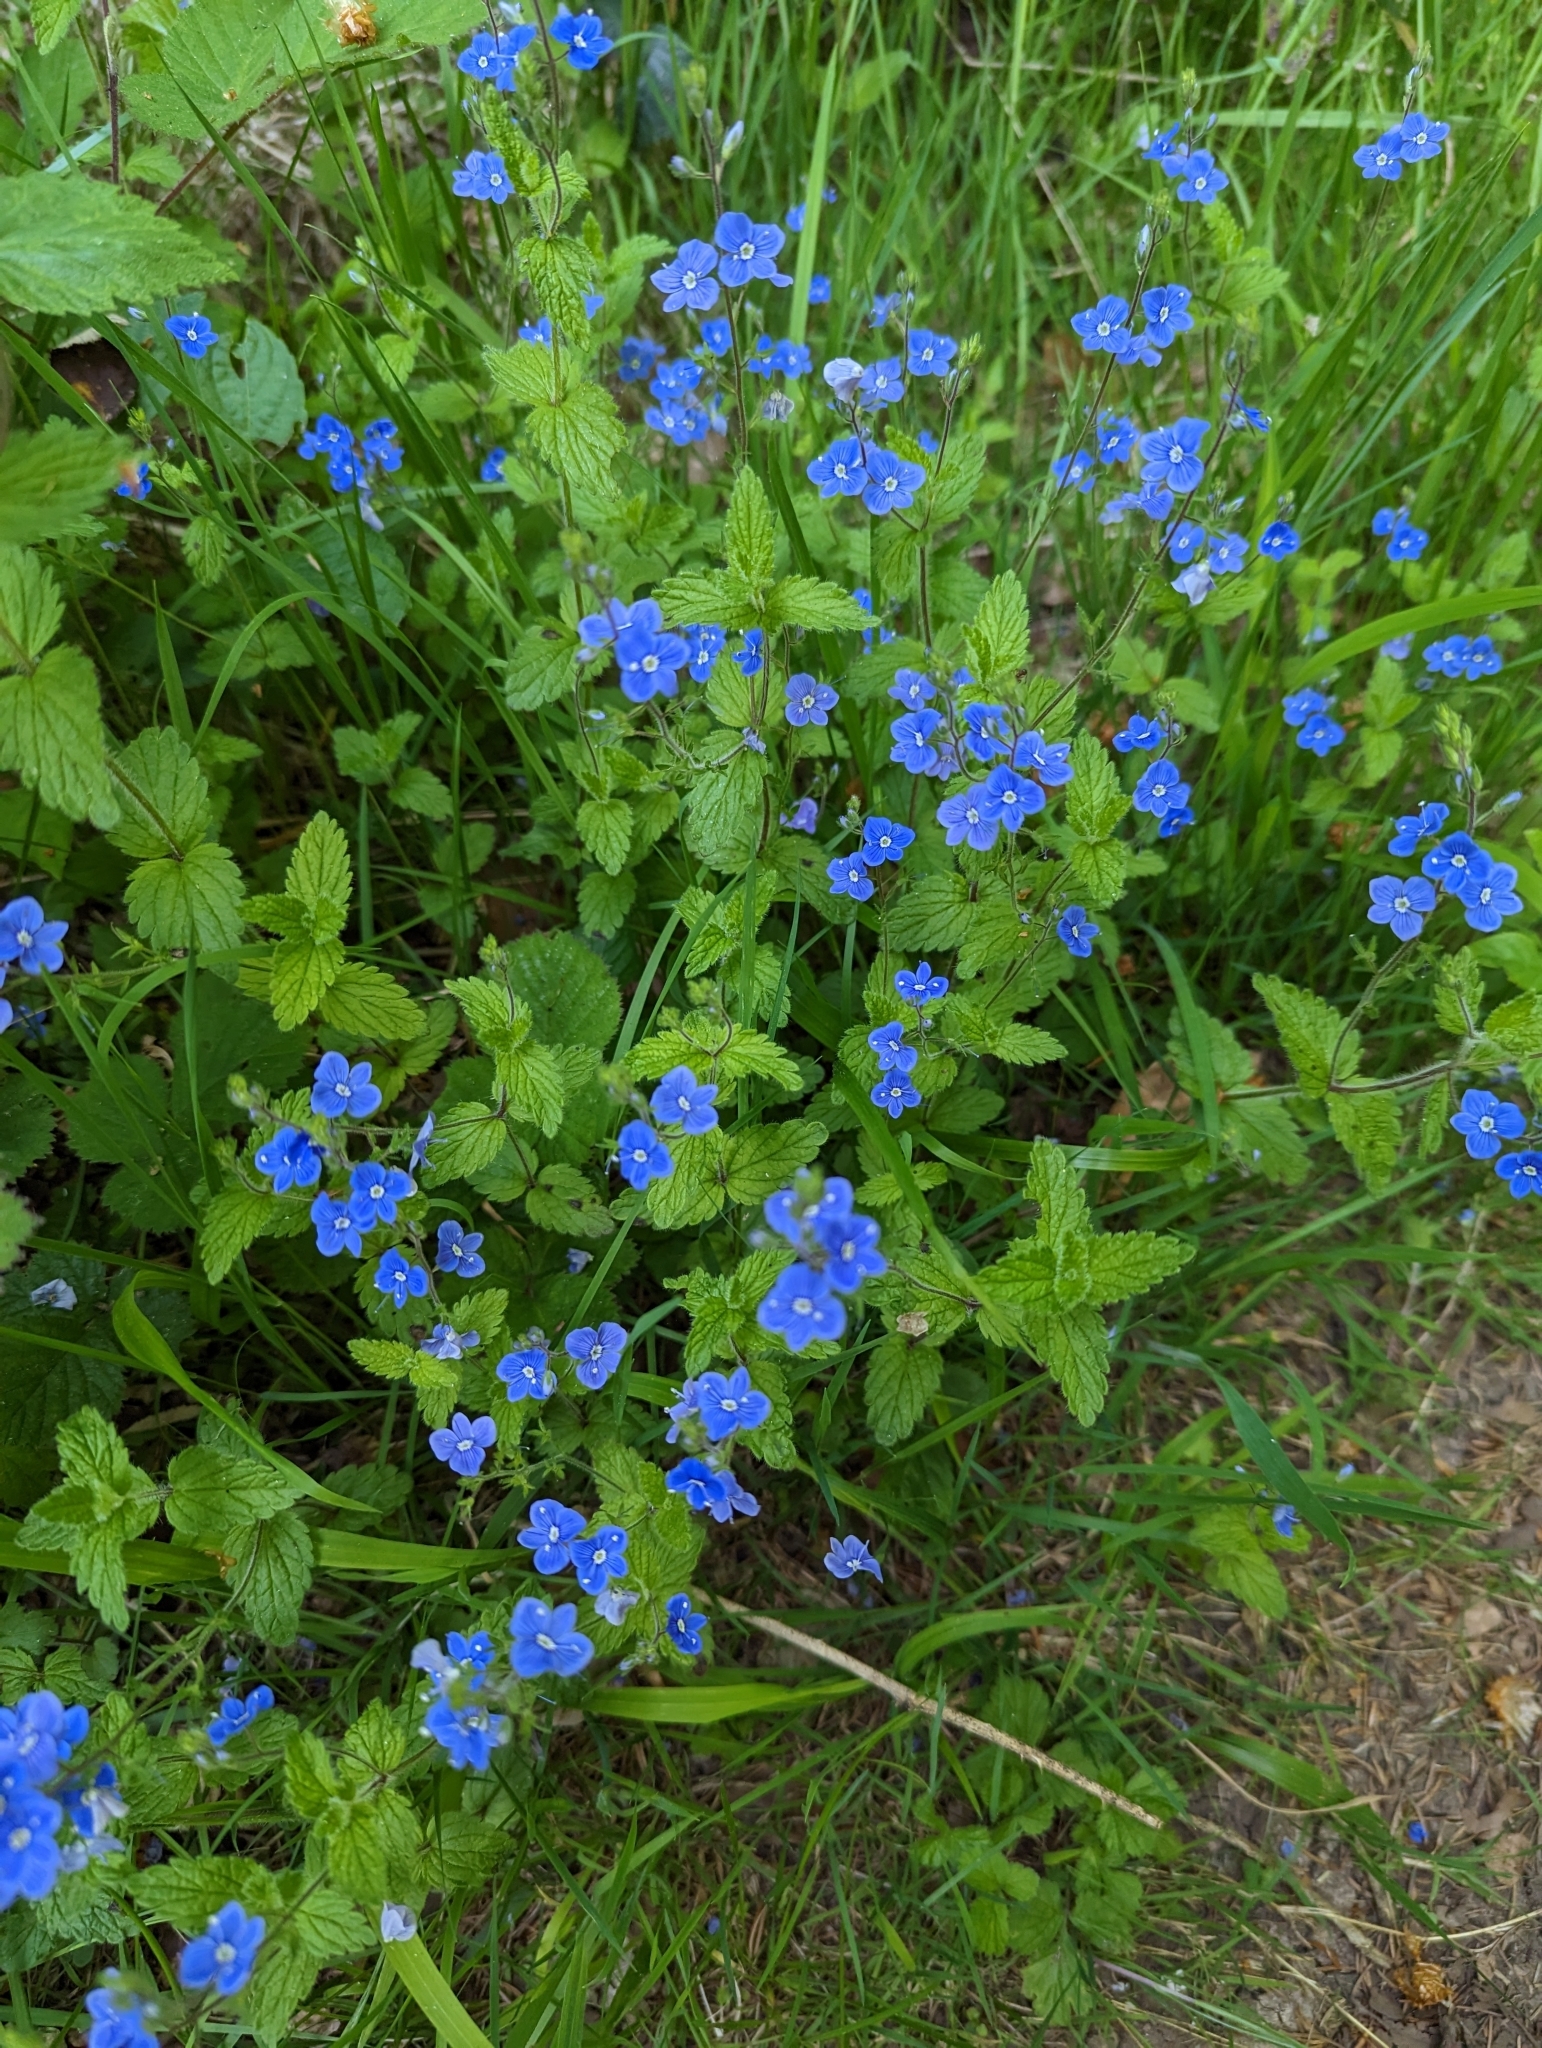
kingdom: Plantae
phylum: Tracheophyta
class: Magnoliopsida
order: Lamiales
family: Plantaginaceae
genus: Veronica
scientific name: Veronica chamaedrys
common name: Germander speedwell
